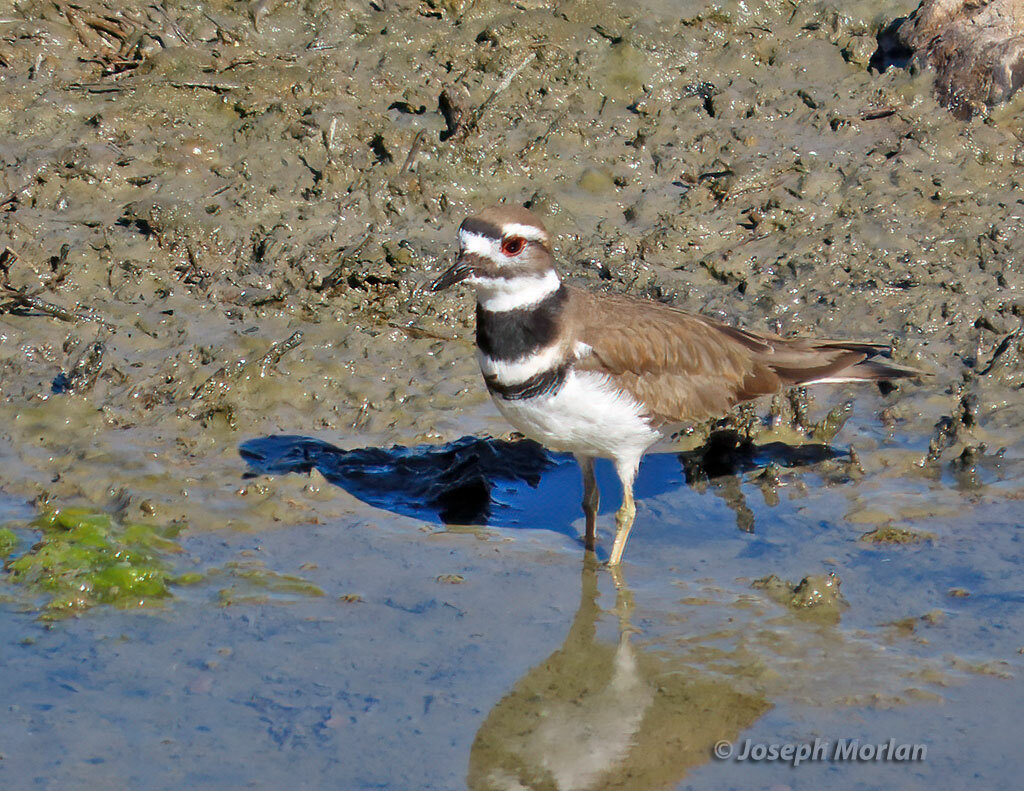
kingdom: Animalia
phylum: Chordata
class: Aves
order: Charadriiformes
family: Charadriidae
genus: Charadrius
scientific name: Charadrius vociferus
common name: Killdeer
